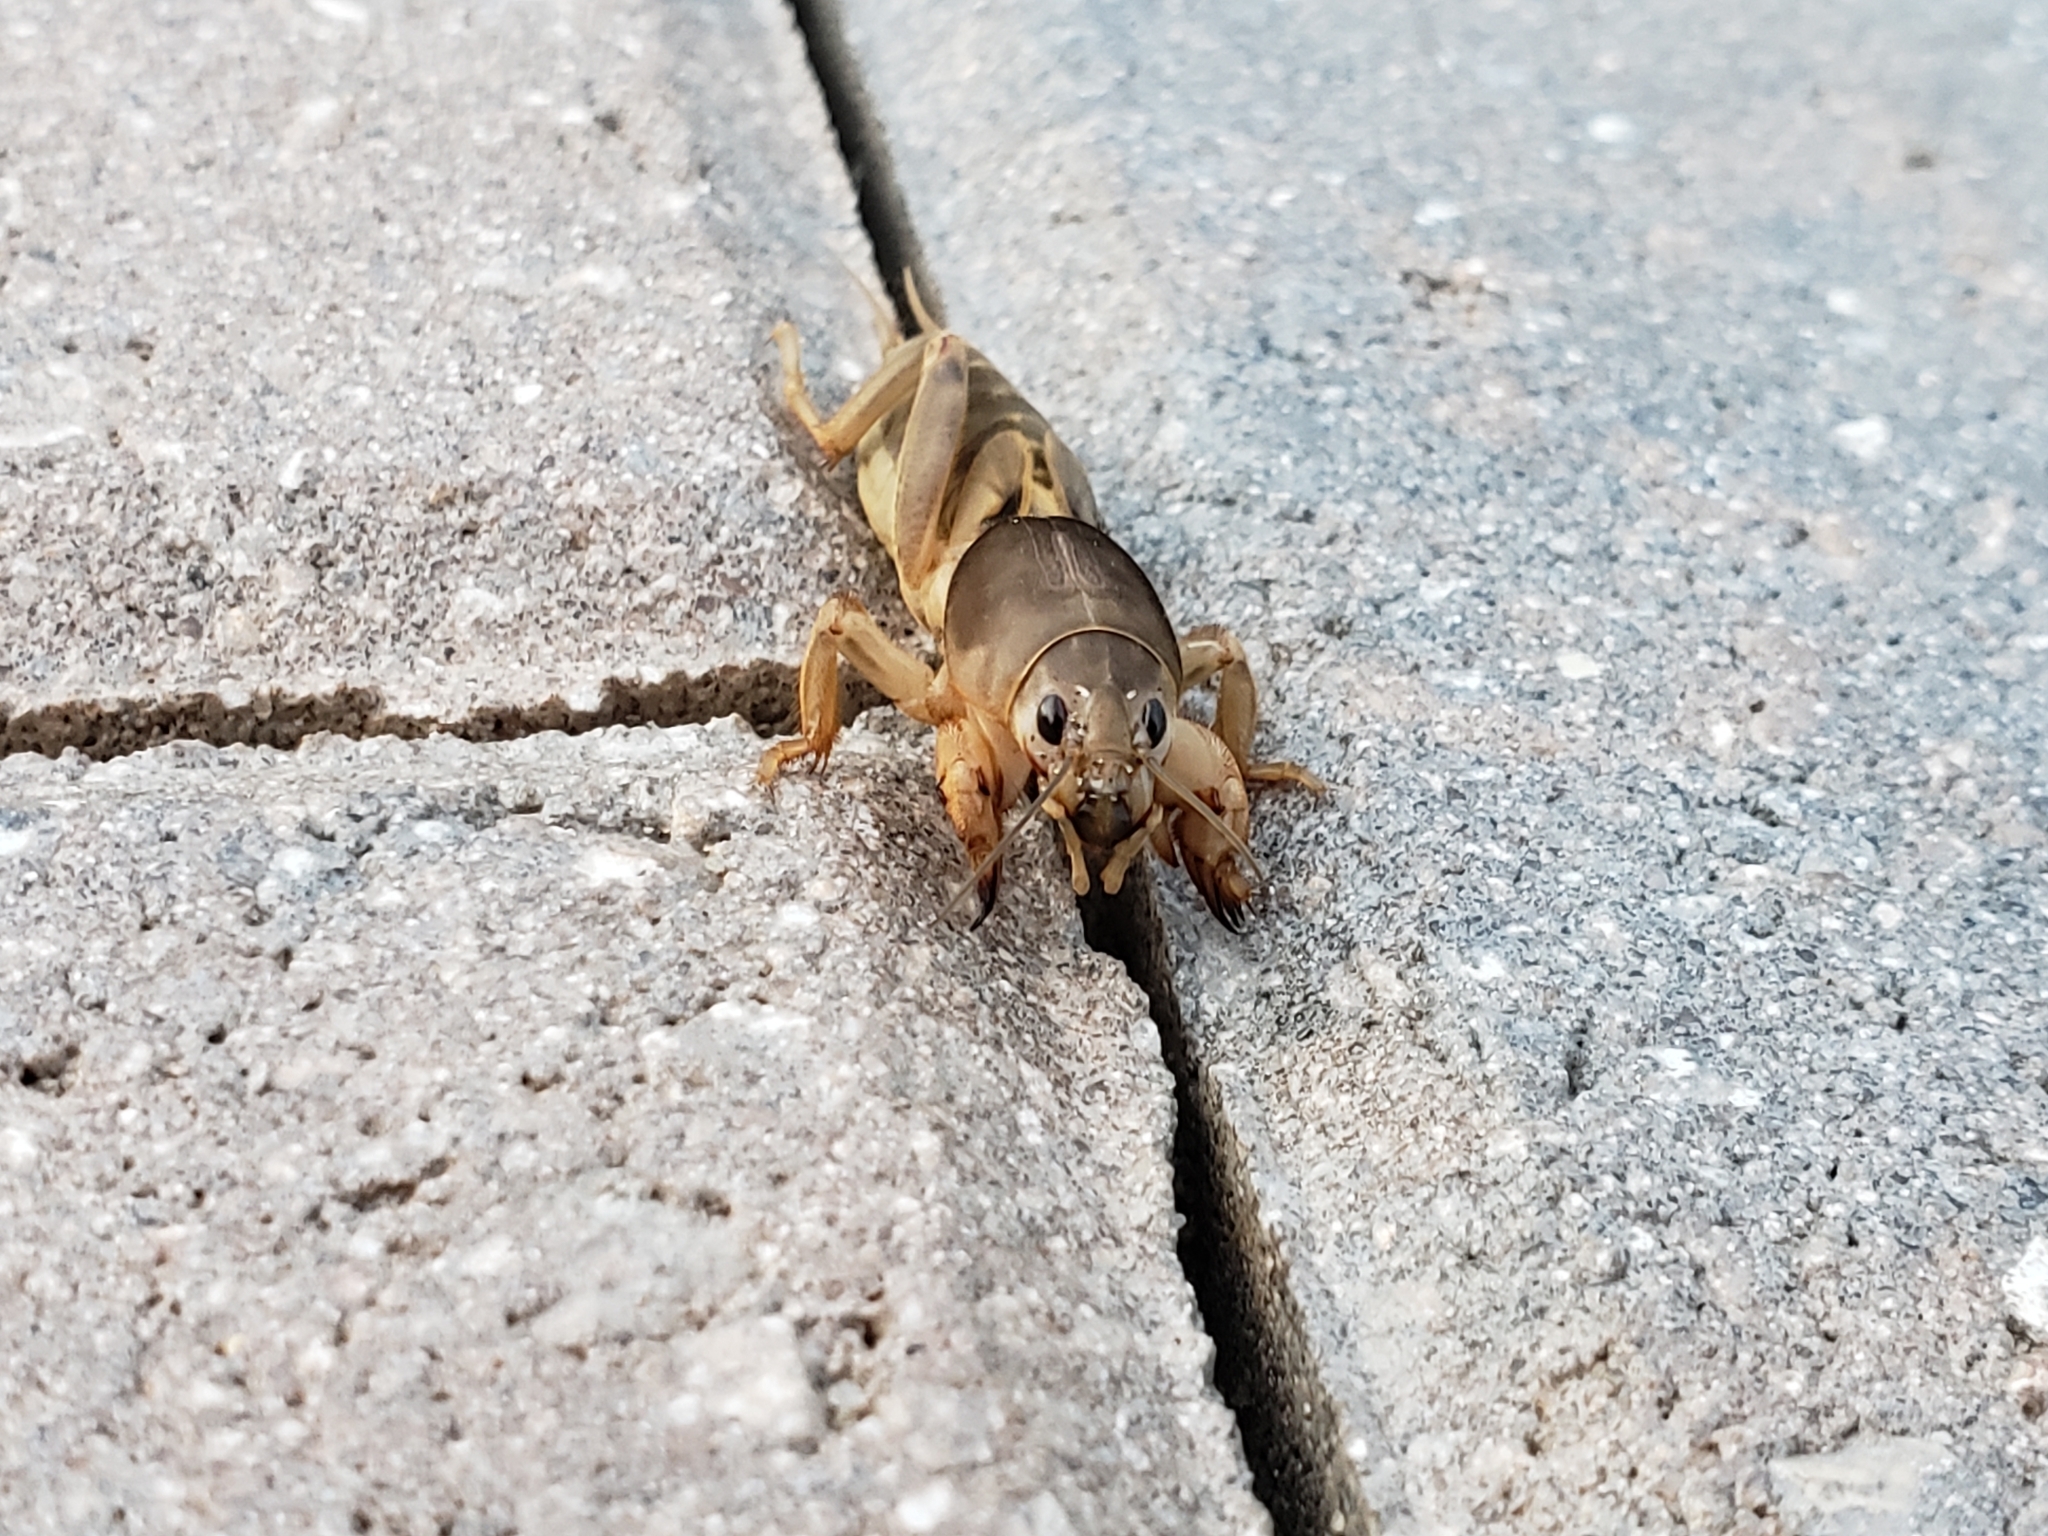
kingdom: Animalia
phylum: Arthropoda
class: Insecta
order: Orthoptera
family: Gryllotalpidae
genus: Neoscapteriscus
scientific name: Neoscapteriscus vicinus
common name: Tawny mole cricket
